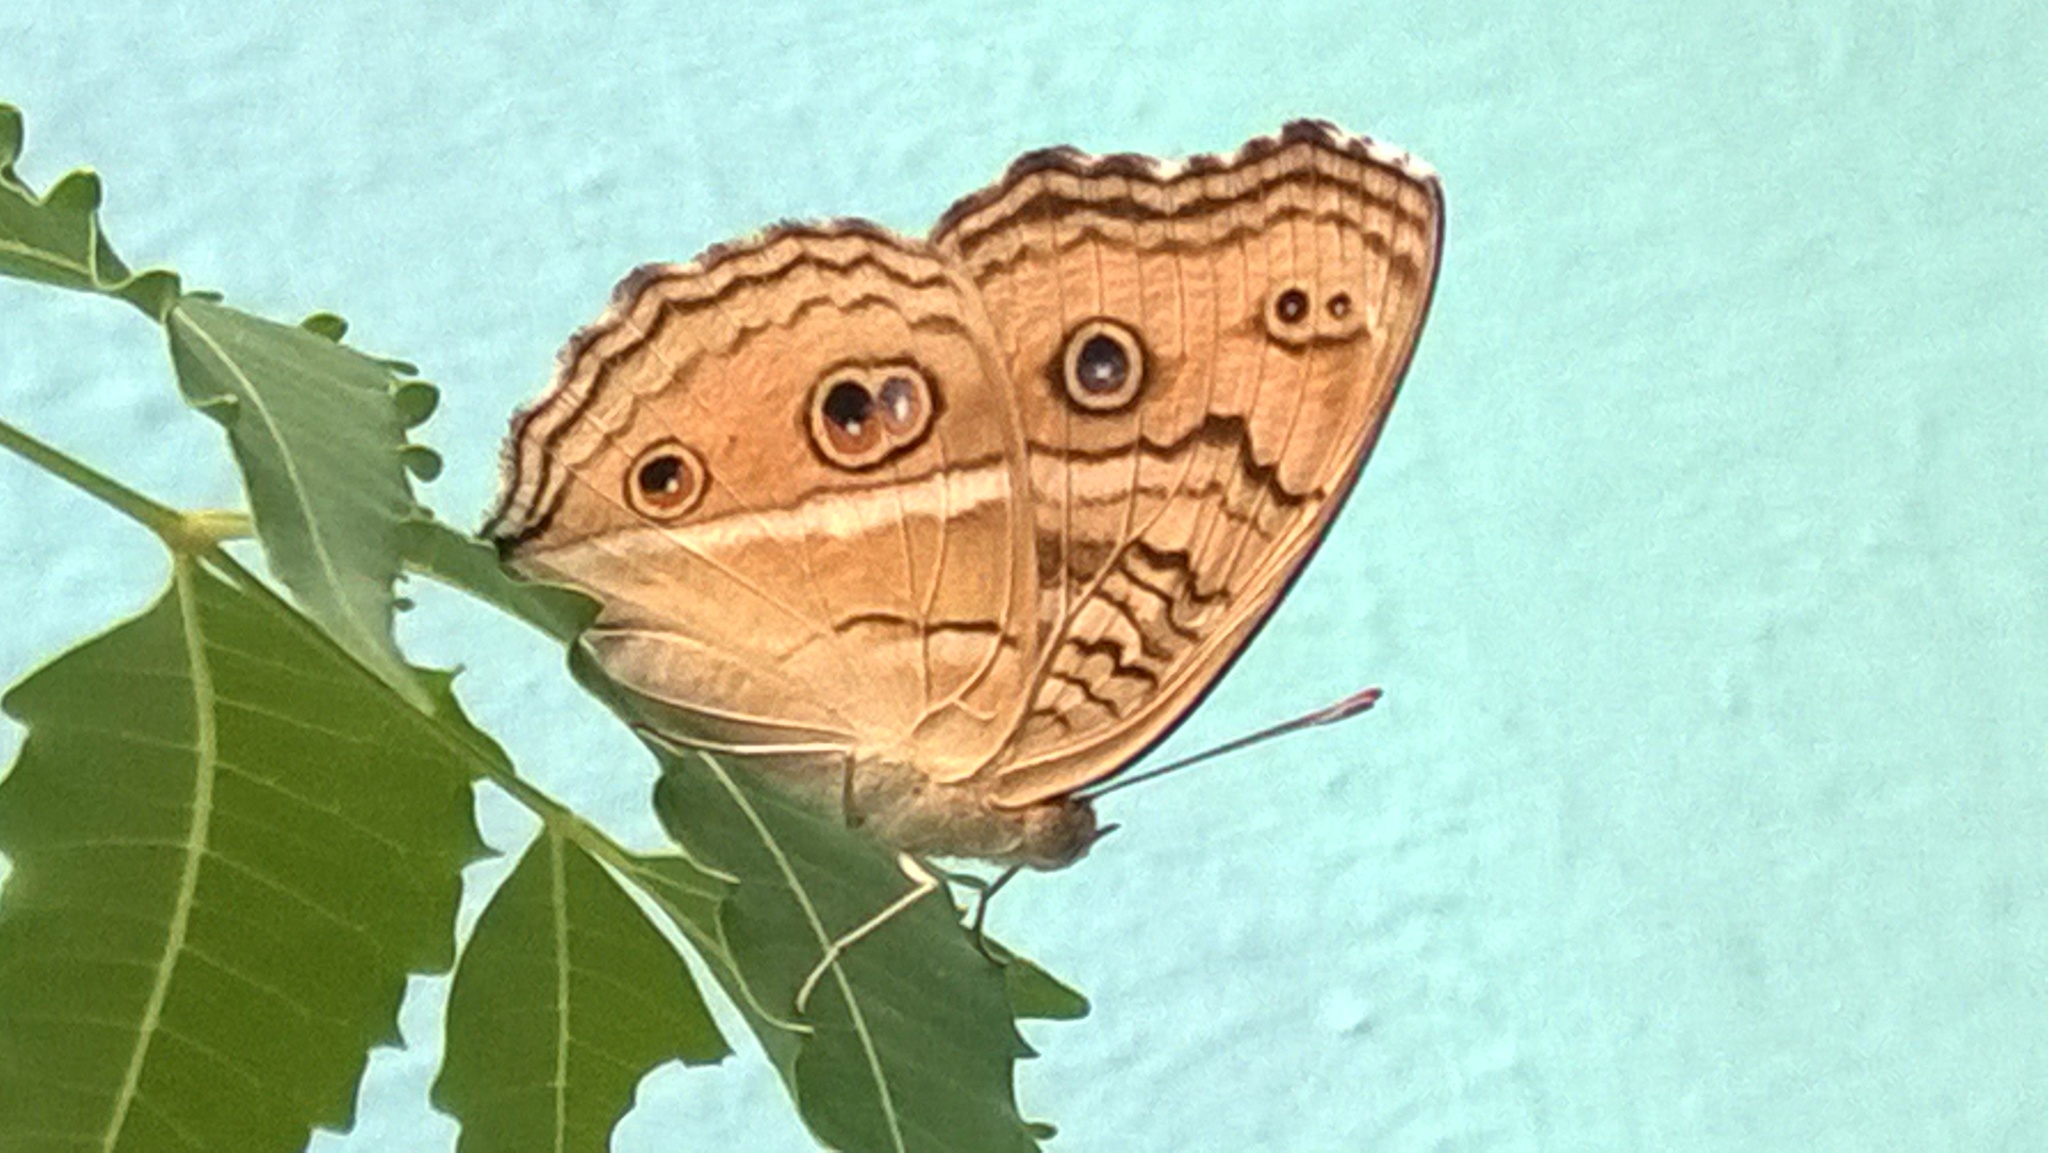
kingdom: Animalia
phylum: Arthropoda
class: Insecta
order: Lepidoptera
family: Nymphalidae
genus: Junonia
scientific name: Junonia almana
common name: Peacock pansy
